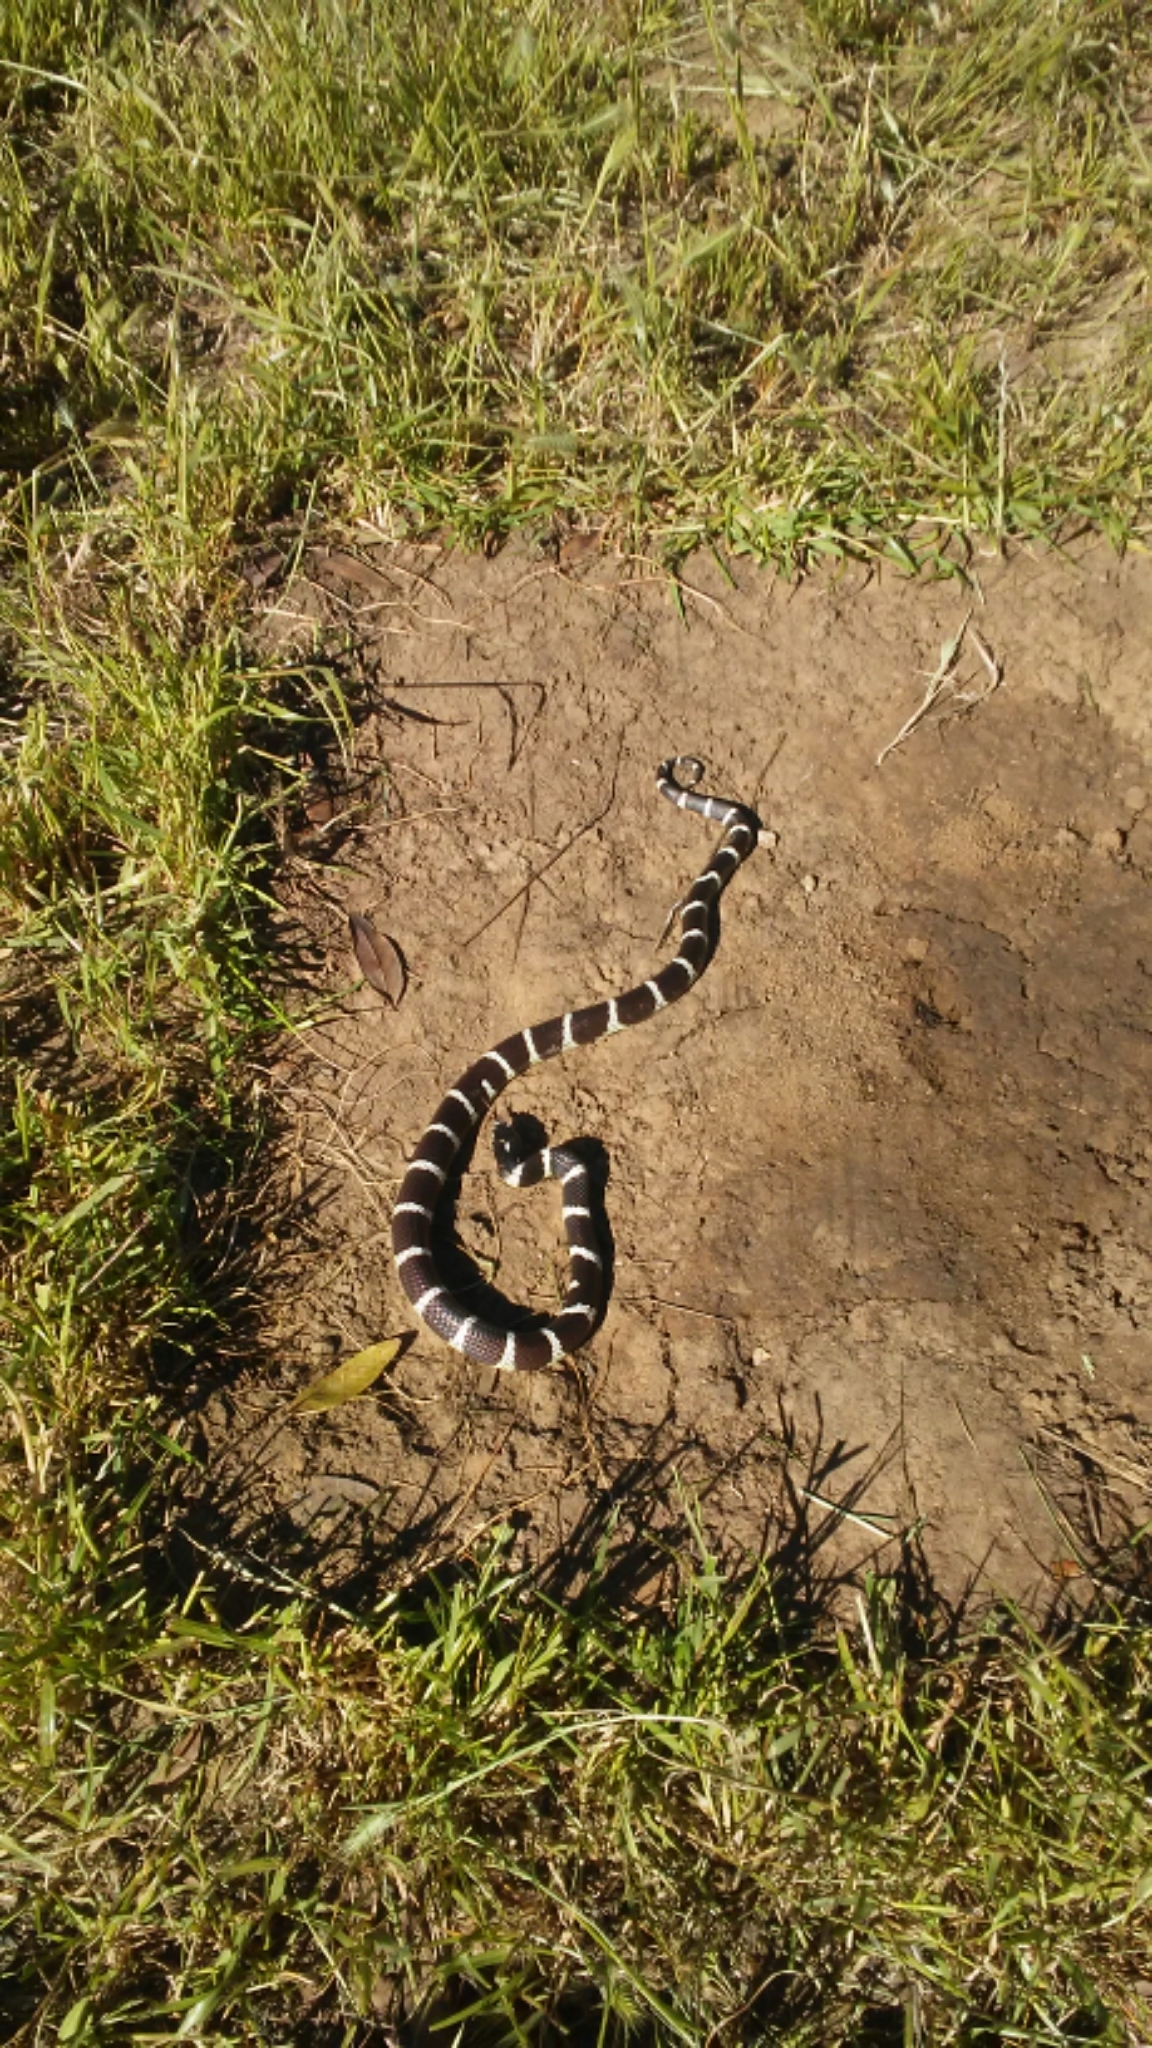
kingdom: Animalia
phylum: Chordata
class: Squamata
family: Colubridae
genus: Lampropeltis
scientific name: Lampropeltis californiae
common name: California kingsnake
